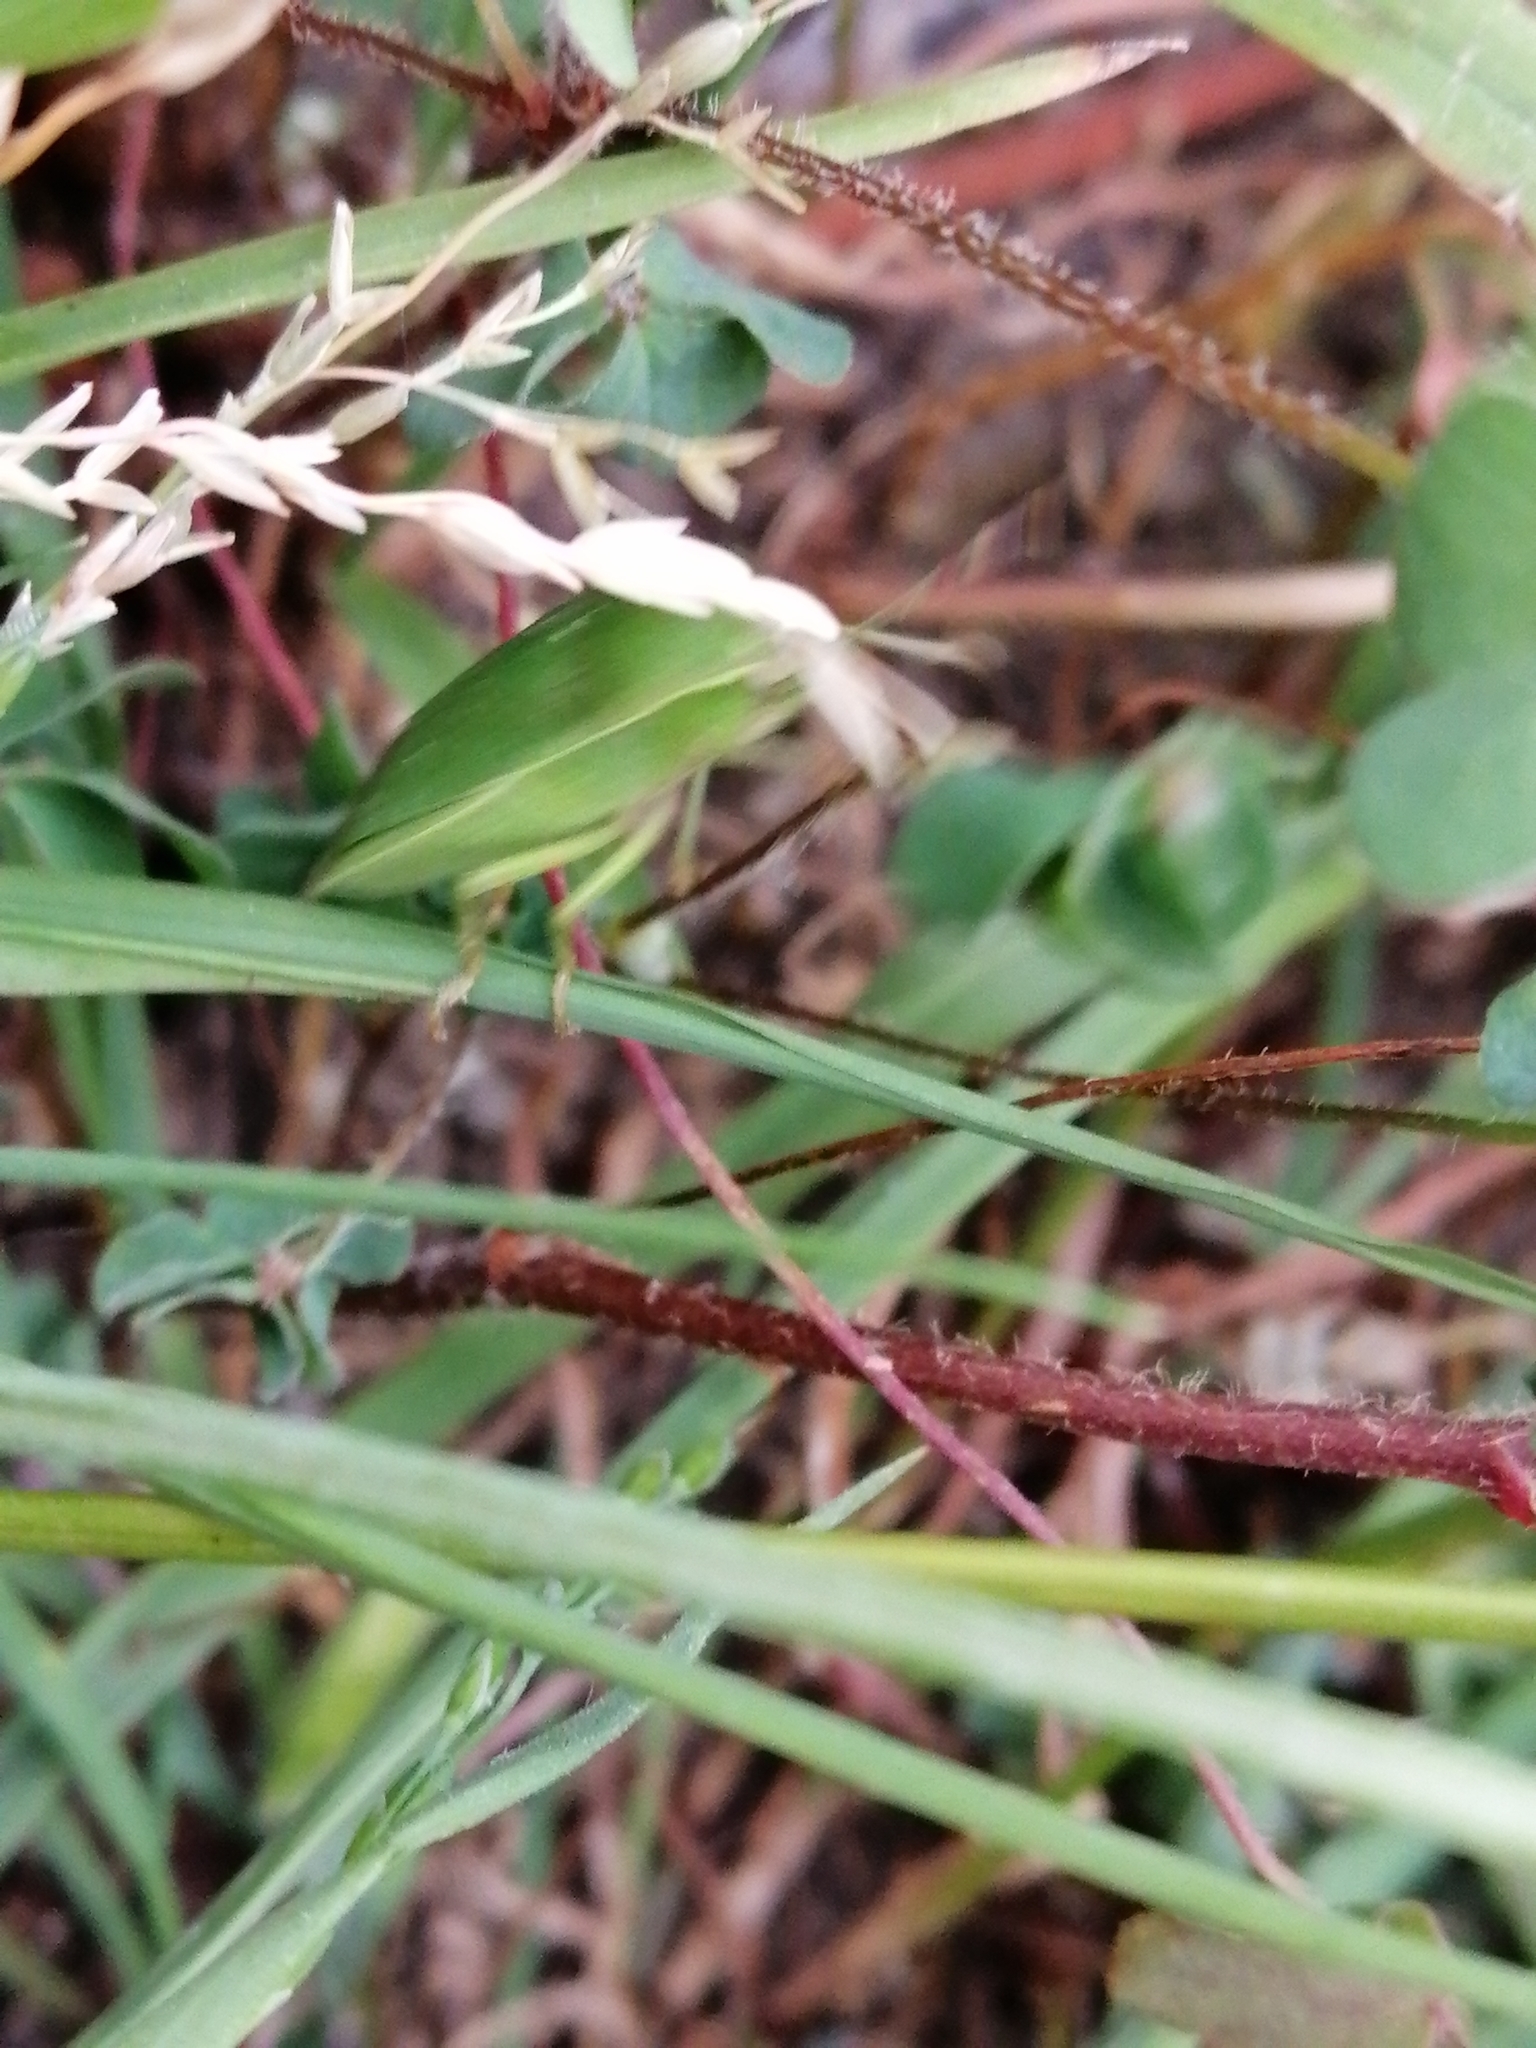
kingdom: Animalia
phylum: Arthropoda
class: Insecta
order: Hemiptera
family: Pentatomidae
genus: Nezara
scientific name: Nezara viridula
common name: Southern green stink bug
